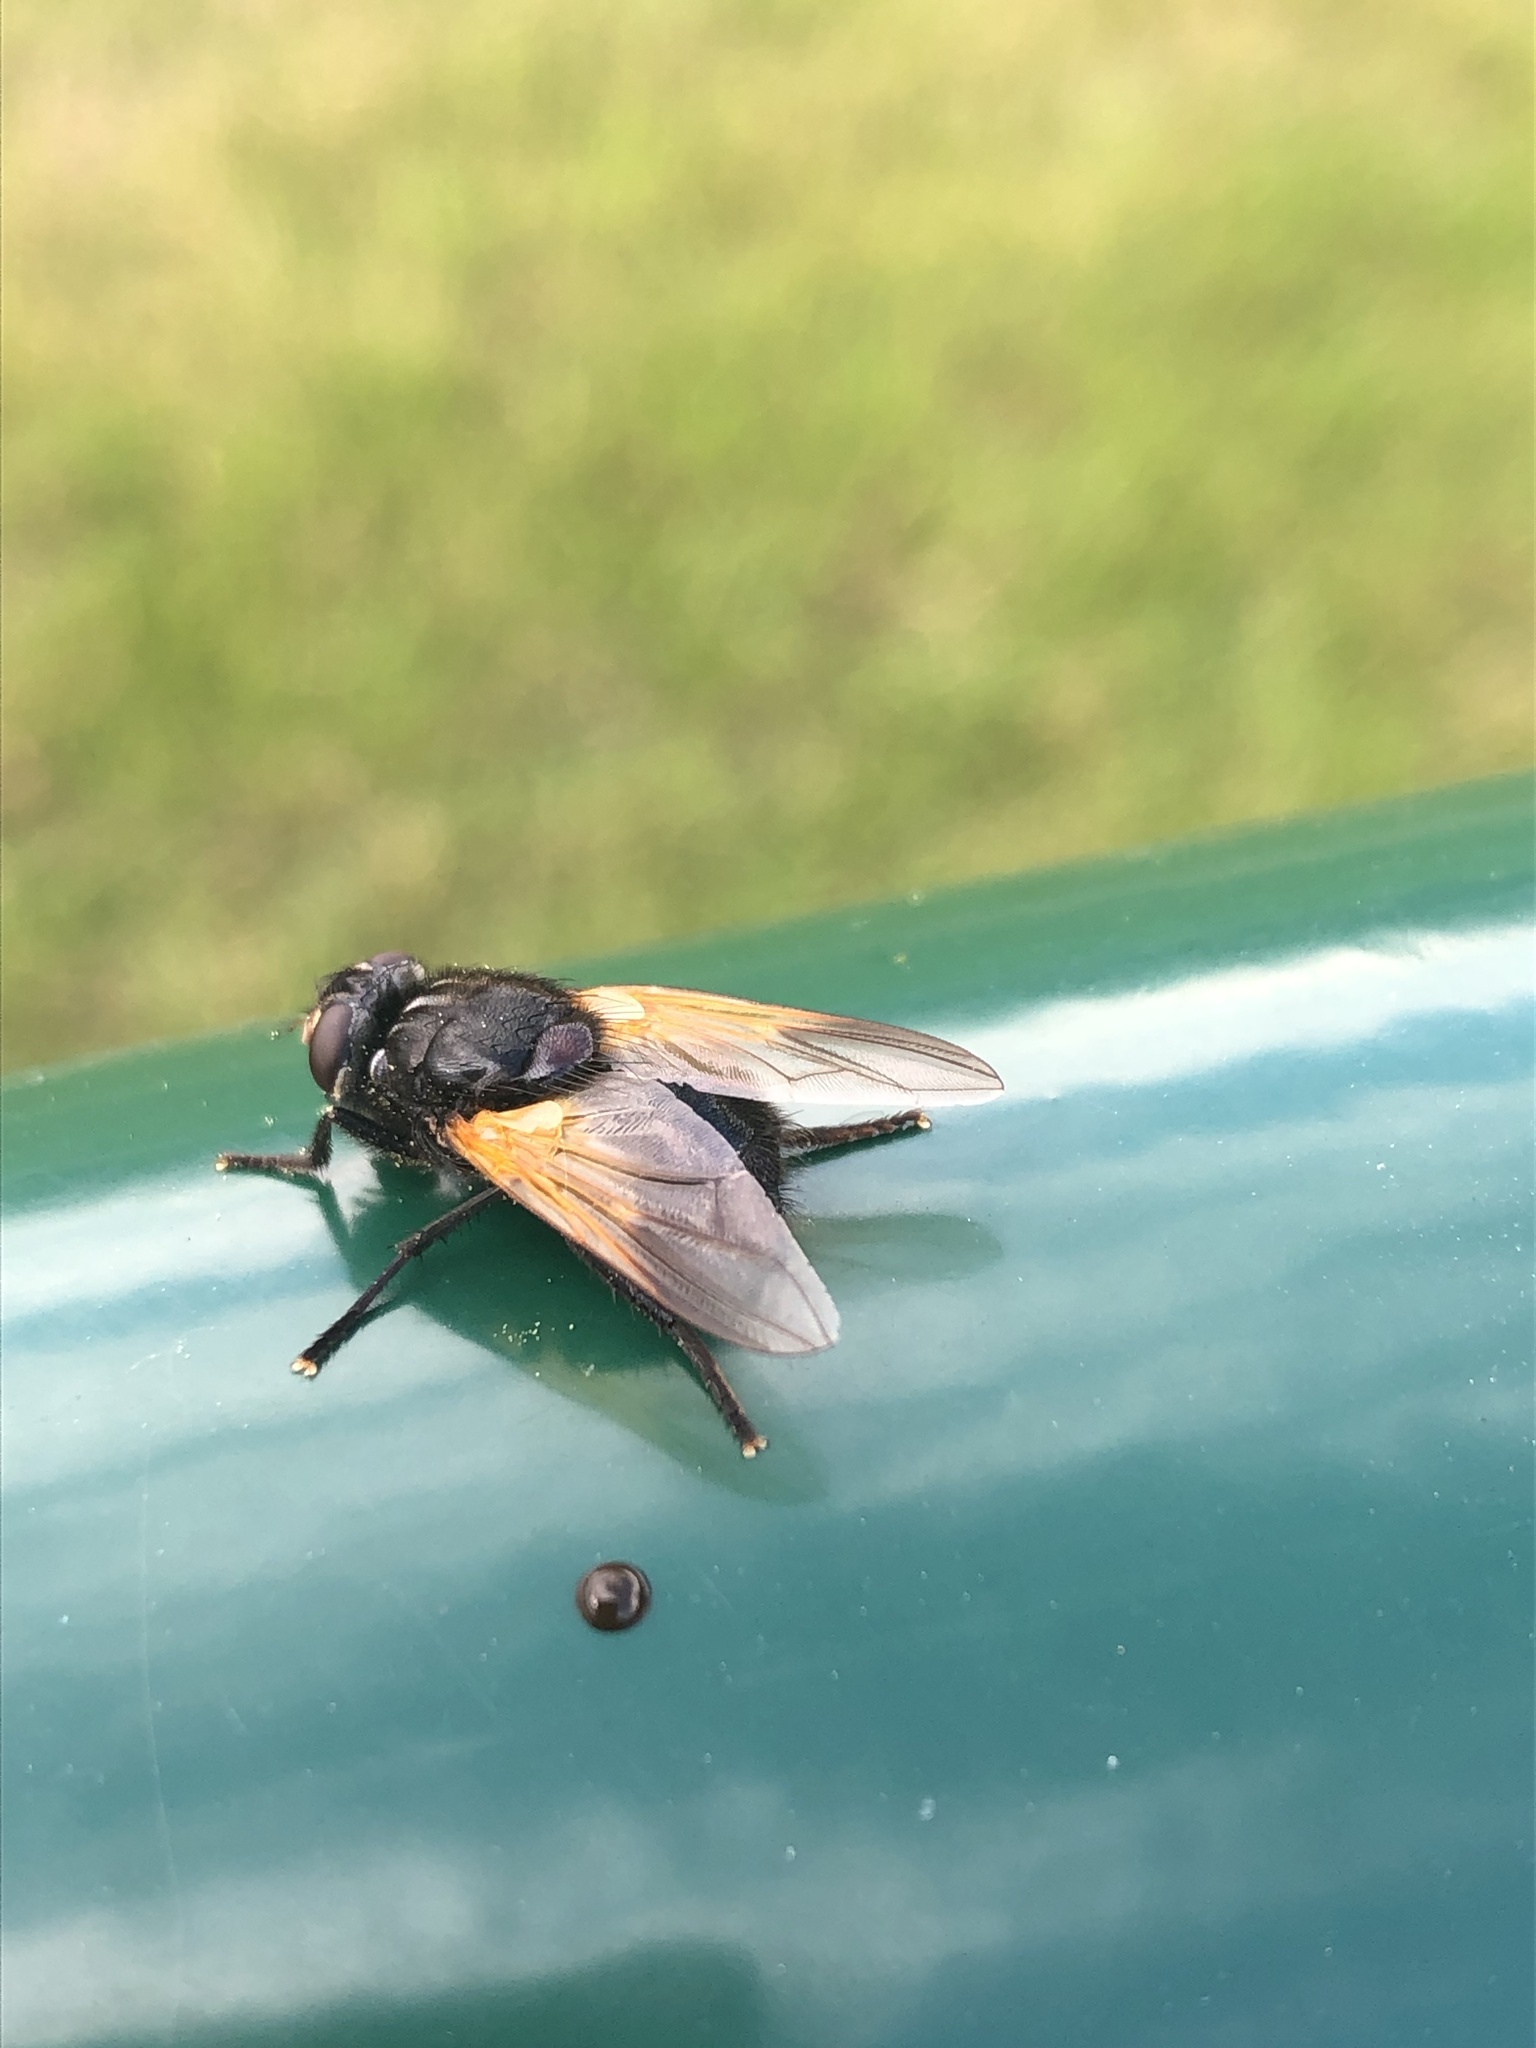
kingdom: Animalia
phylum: Arthropoda
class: Insecta
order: Diptera
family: Muscidae
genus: Mesembrina
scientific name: Mesembrina meridiana
